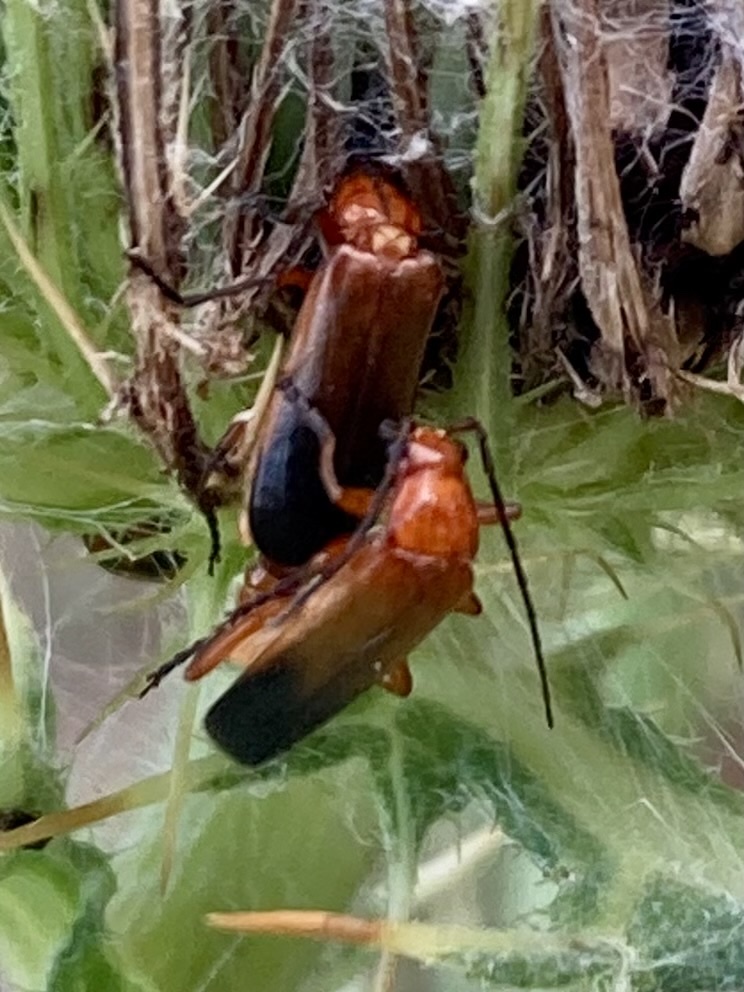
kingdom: Animalia
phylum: Arthropoda
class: Insecta
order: Coleoptera
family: Cantharidae
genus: Rhagonycha
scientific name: Rhagonycha fulva
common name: Common red soldier beetle
